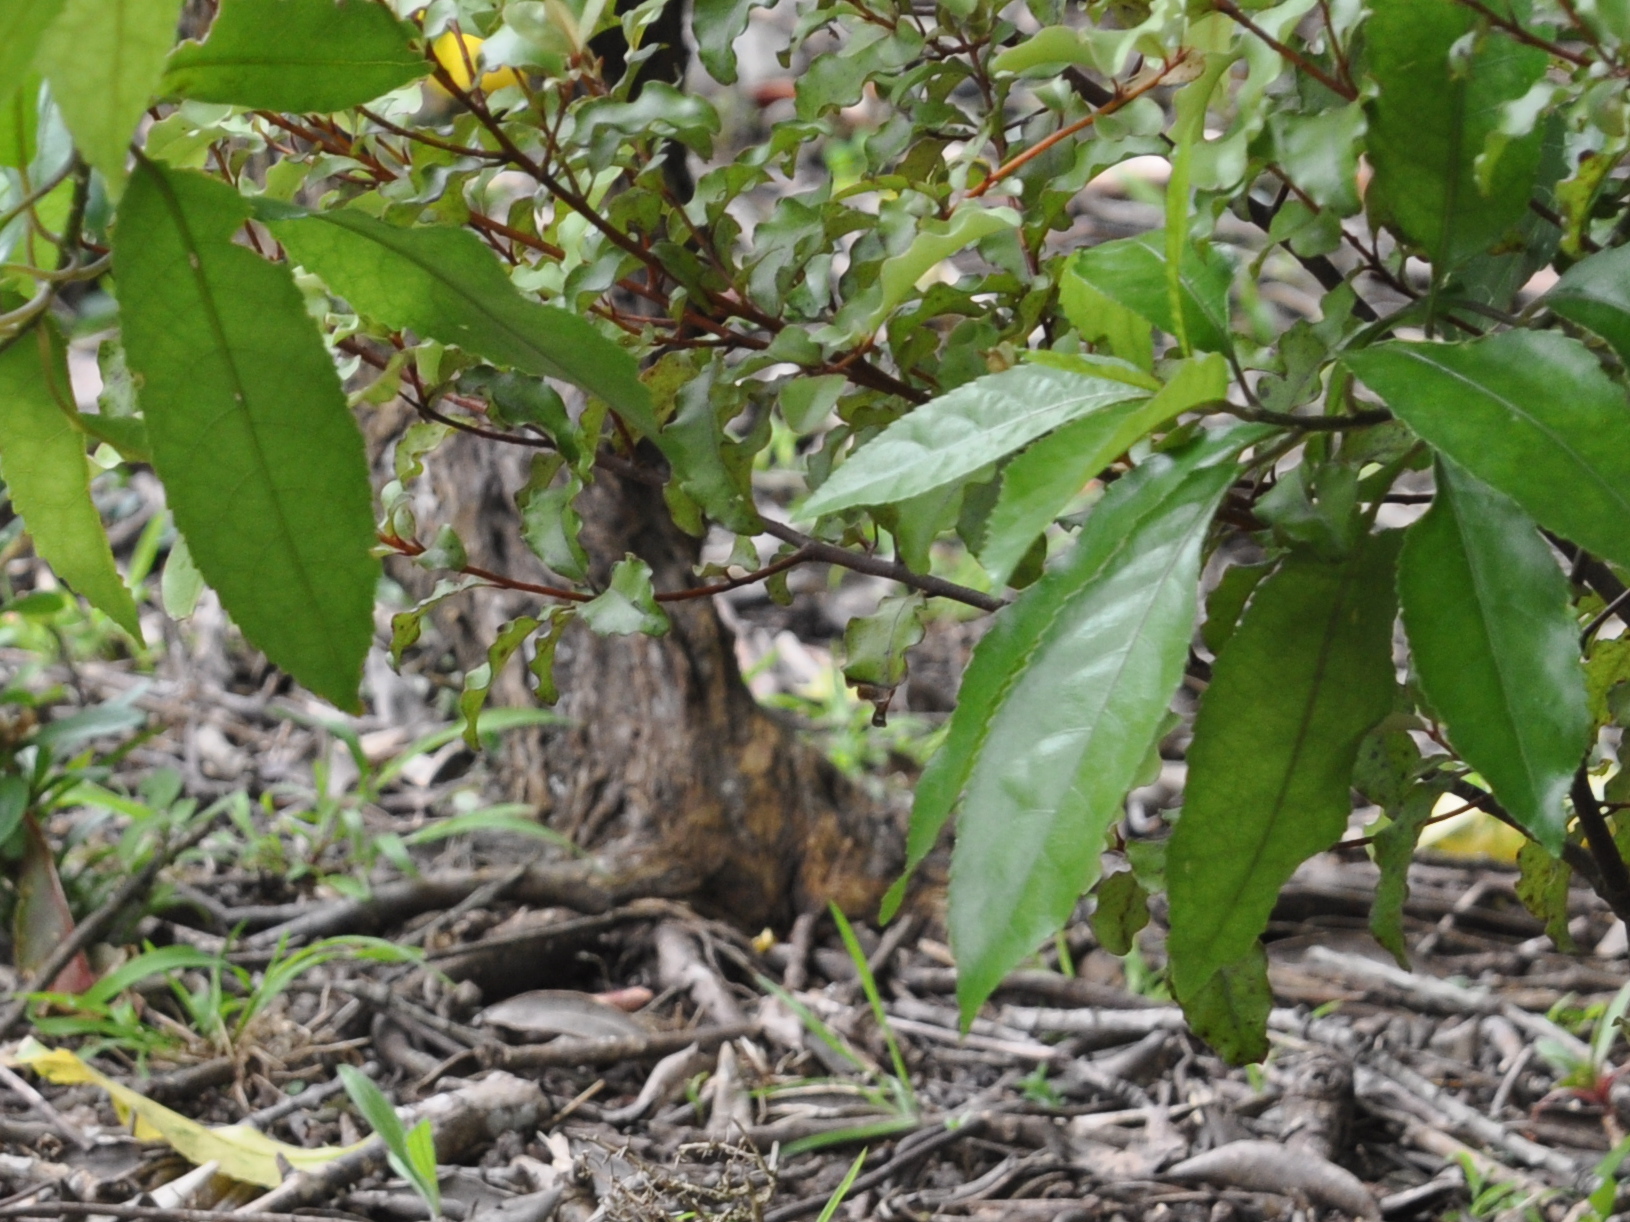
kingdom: Plantae
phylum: Tracheophyta
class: Magnoliopsida
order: Malpighiales
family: Violaceae
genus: Melicytus
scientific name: Melicytus ramiflorus
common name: Mahoe
